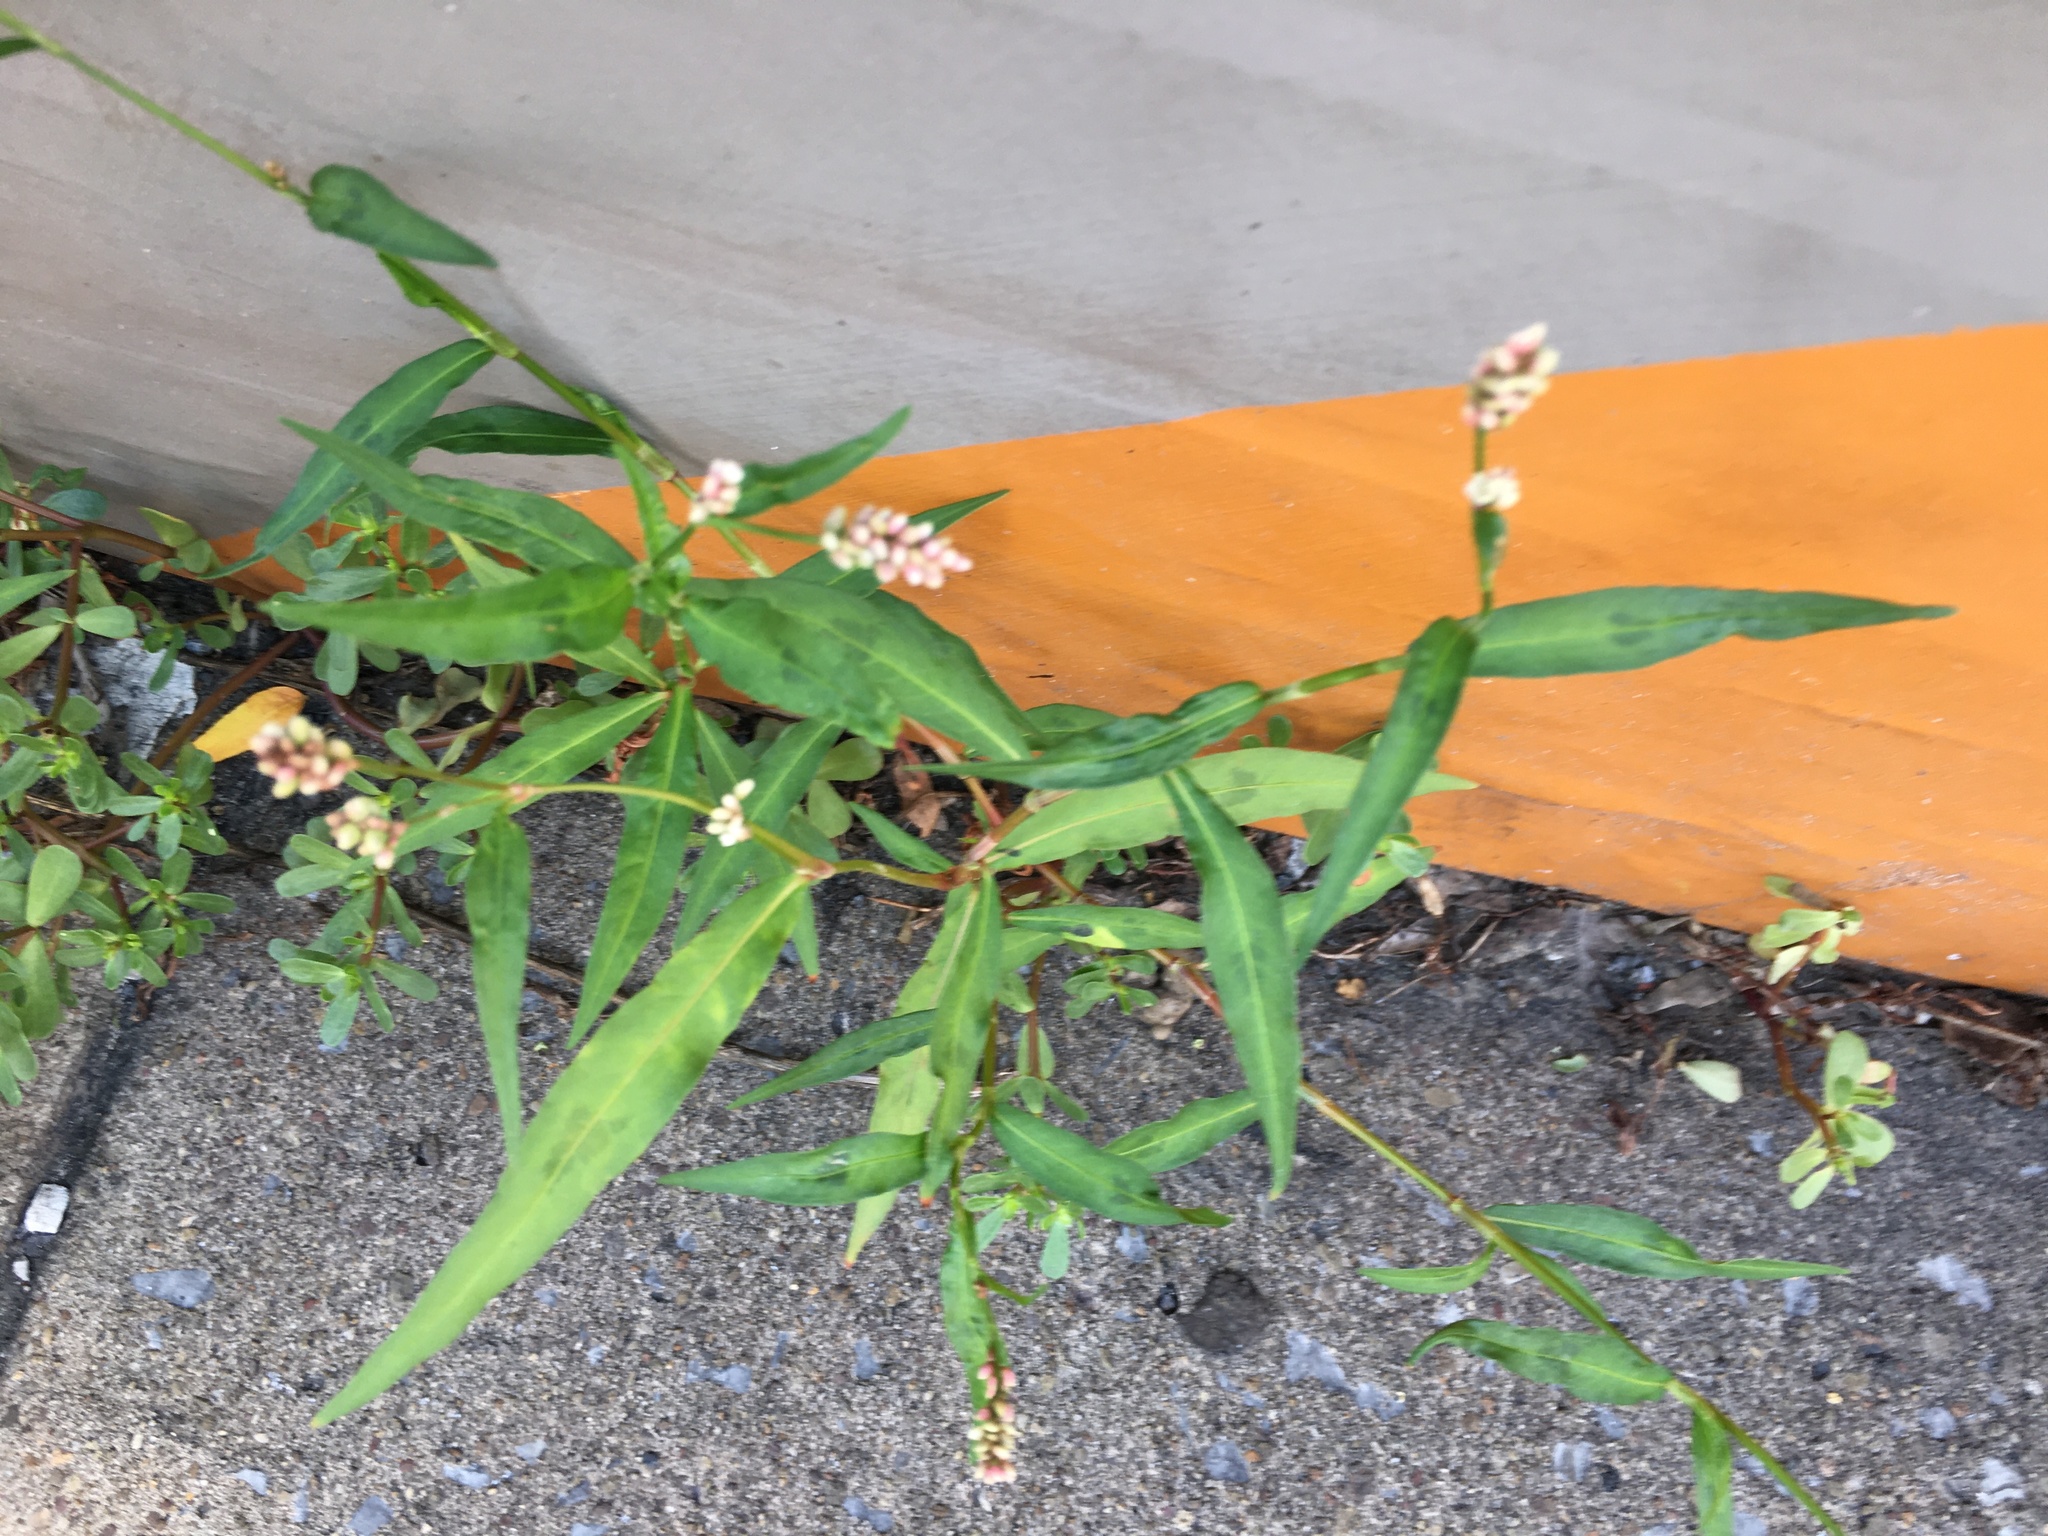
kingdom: Plantae
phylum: Tracheophyta
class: Magnoliopsida
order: Caryophyllales
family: Polygonaceae
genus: Persicaria
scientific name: Persicaria maculosa
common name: Redshank
